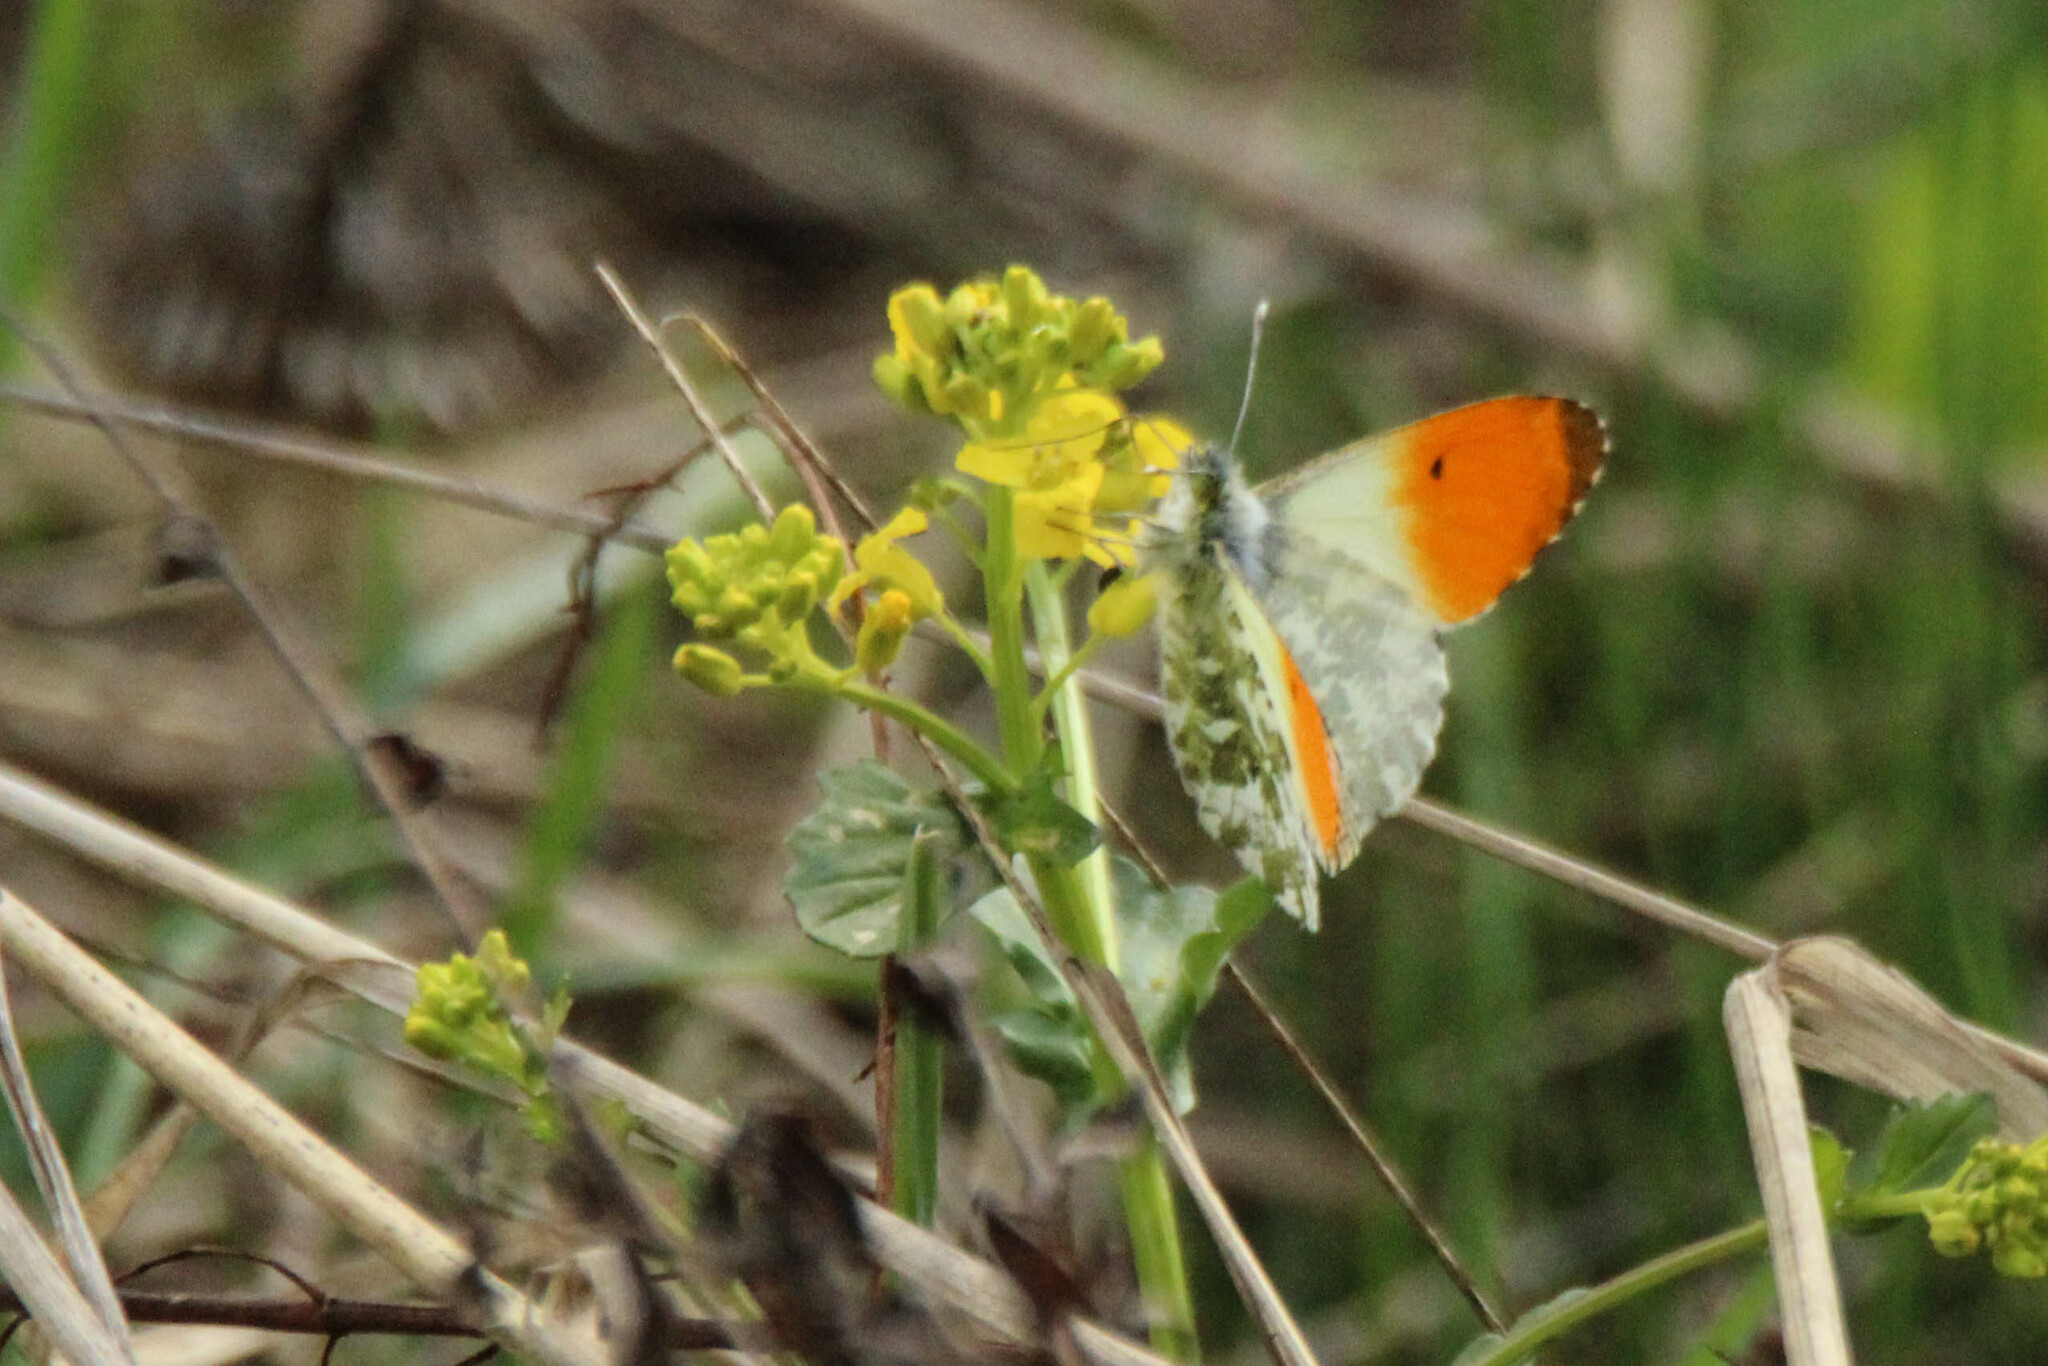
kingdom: Animalia
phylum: Arthropoda
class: Insecta
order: Lepidoptera
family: Pieridae
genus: Anthocharis
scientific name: Anthocharis cardamines
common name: Orange-tip
